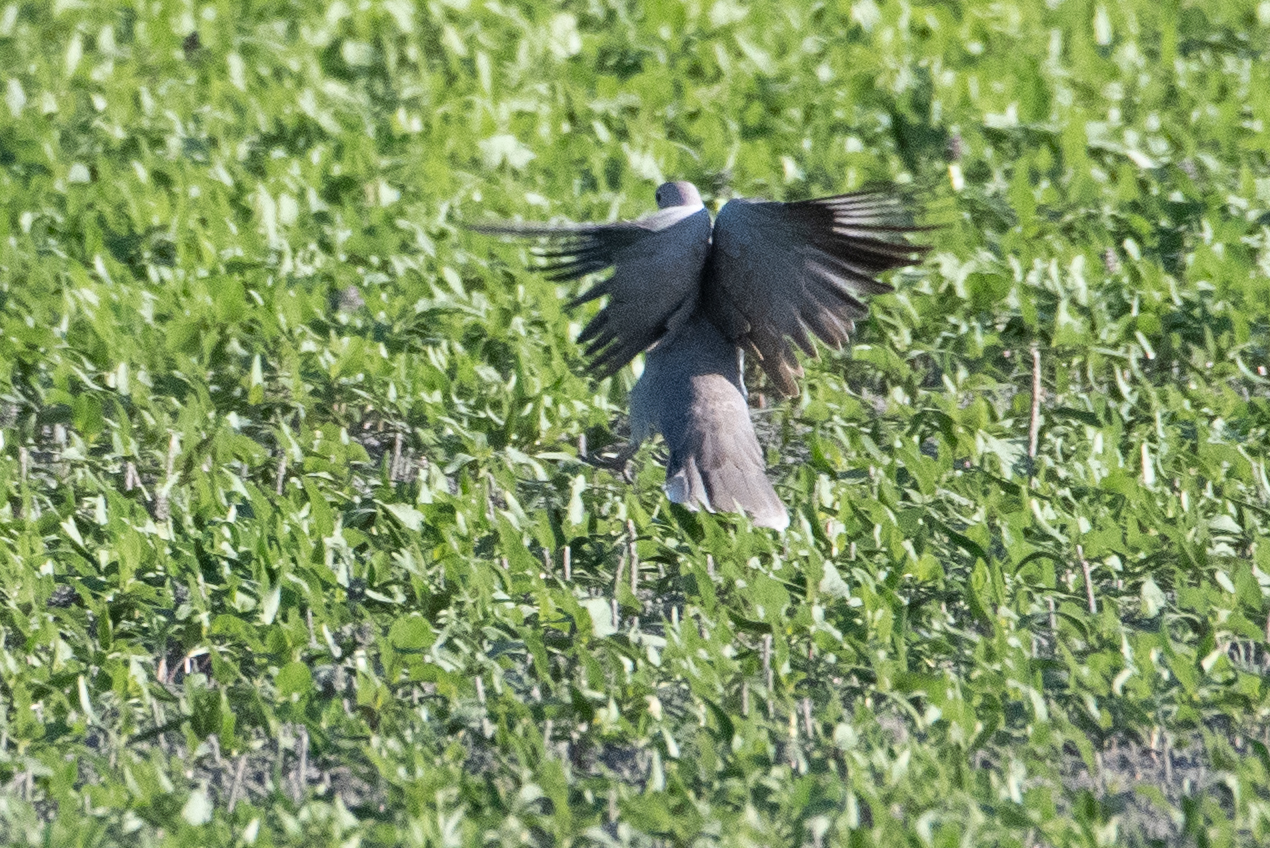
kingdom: Animalia
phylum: Chordata
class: Aves
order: Columbiformes
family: Columbidae
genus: Streptopelia
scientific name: Streptopelia decaocto
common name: Eurasian collared dove
